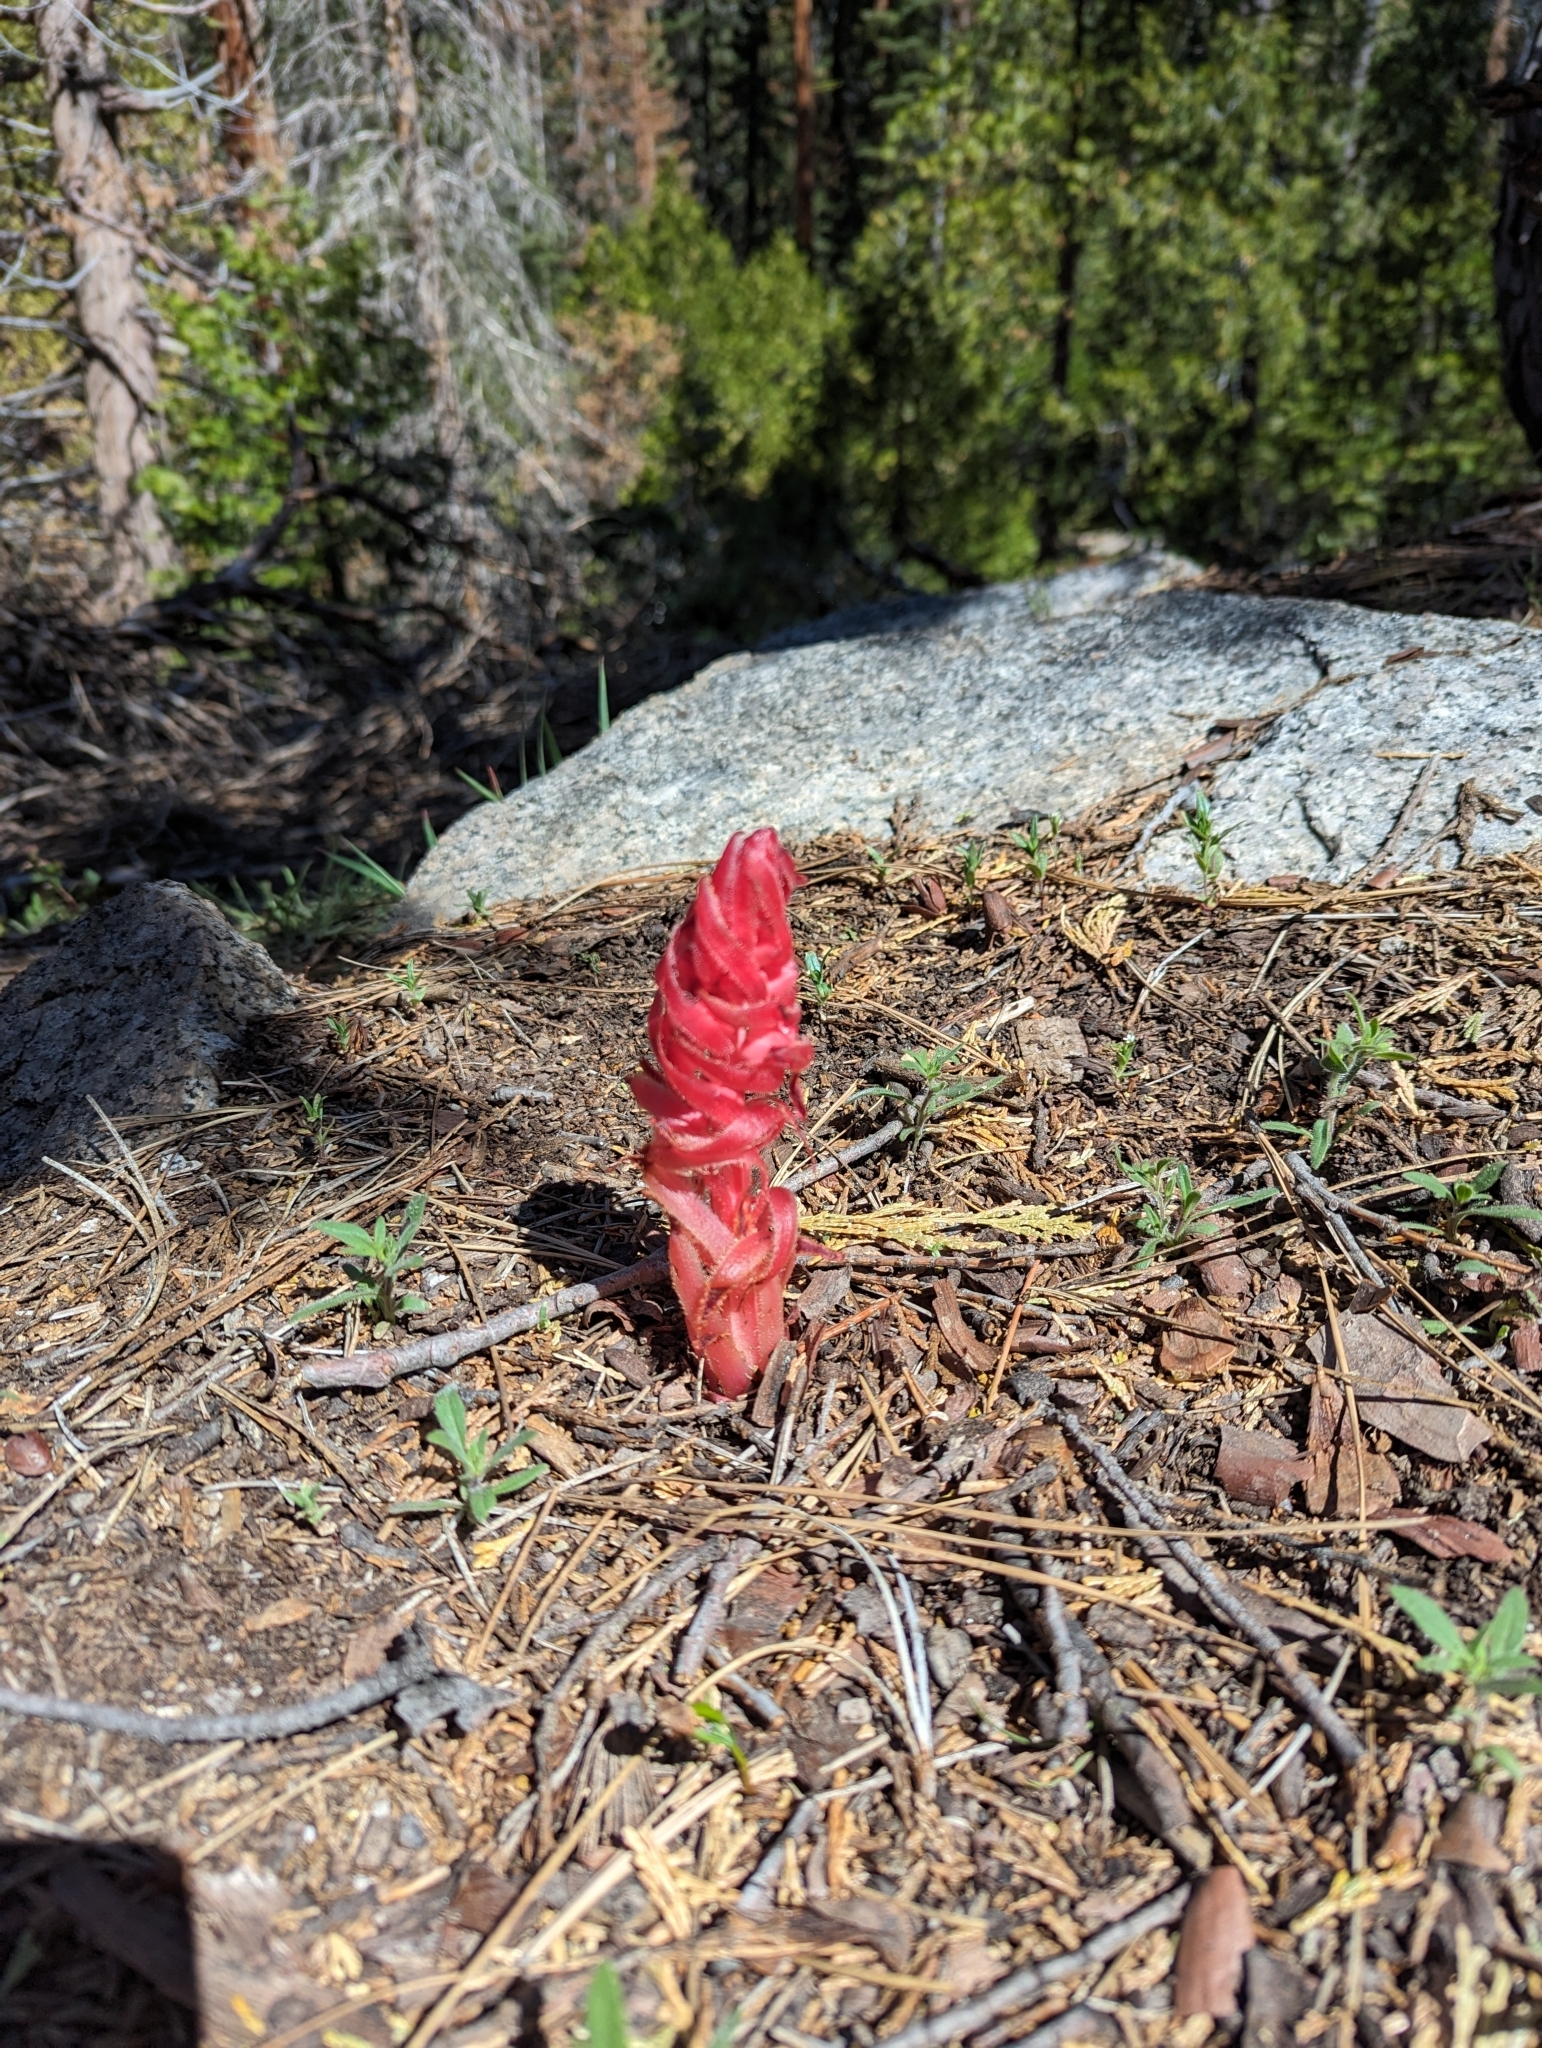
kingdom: Plantae
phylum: Tracheophyta
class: Magnoliopsida
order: Ericales
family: Ericaceae
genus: Sarcodes
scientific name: Sarcodes sanguinea
